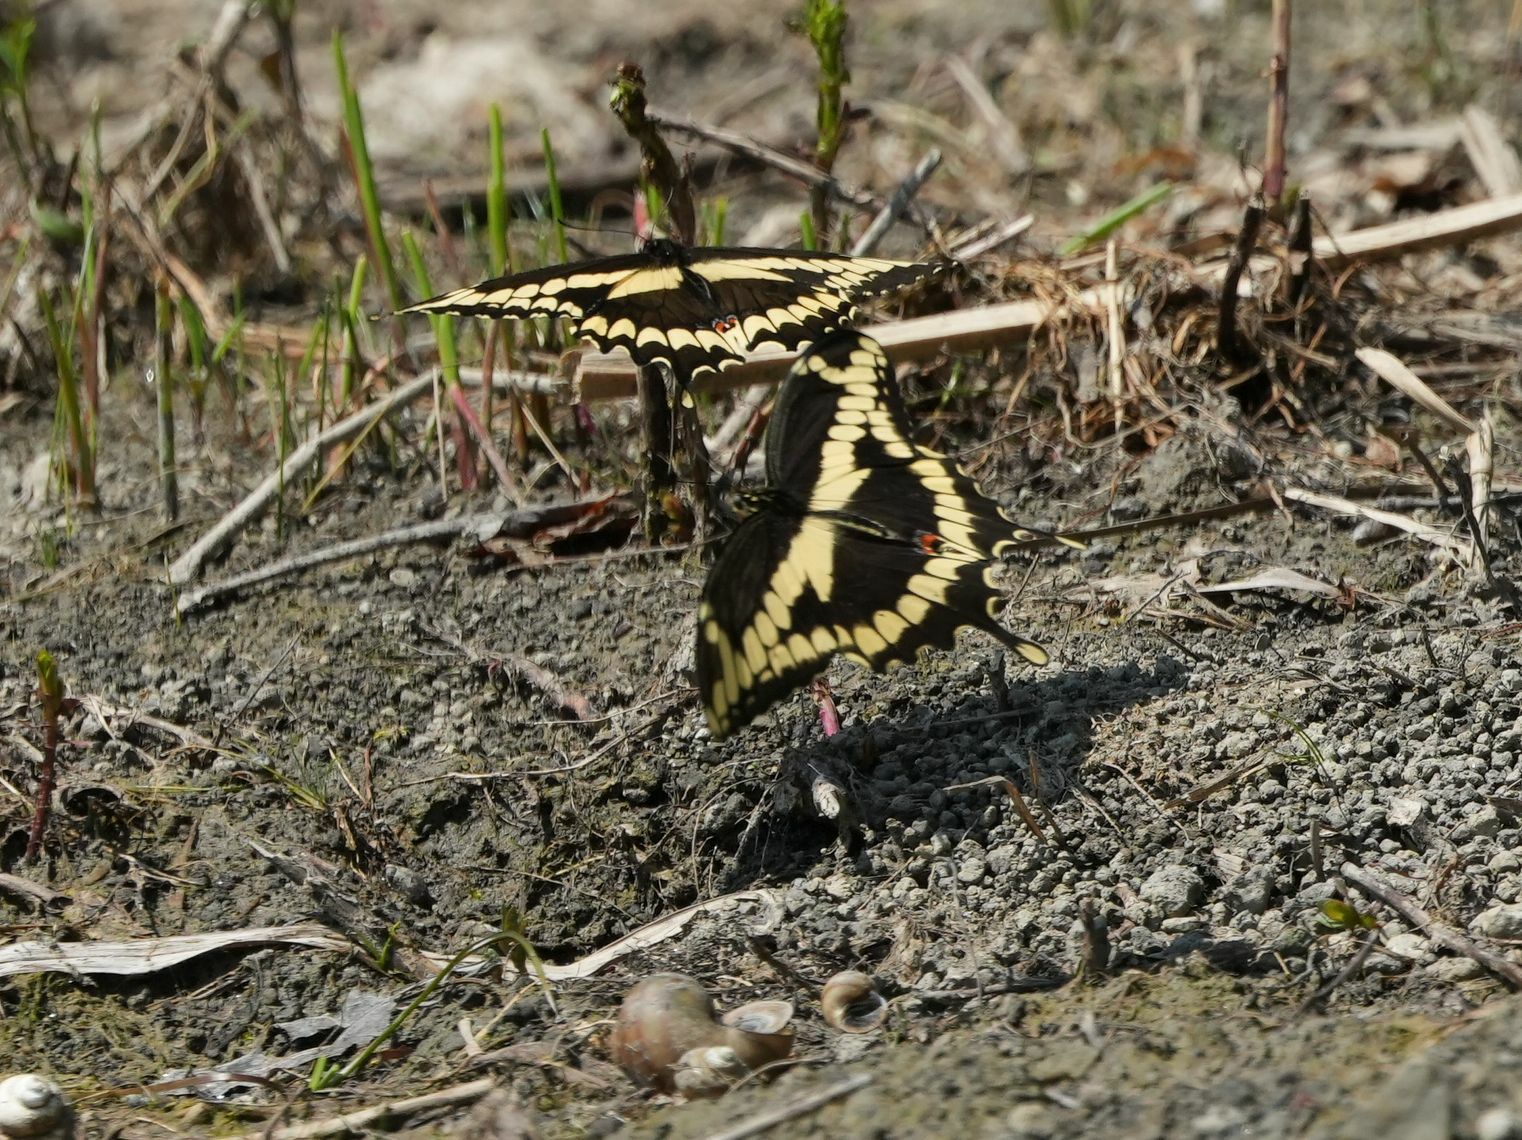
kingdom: Animalia
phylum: Arthropoda
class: Insecta
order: Lepidoptera
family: Papilionidae
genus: Papilio
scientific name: Papilio cresphontes
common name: Giant swallowtail
